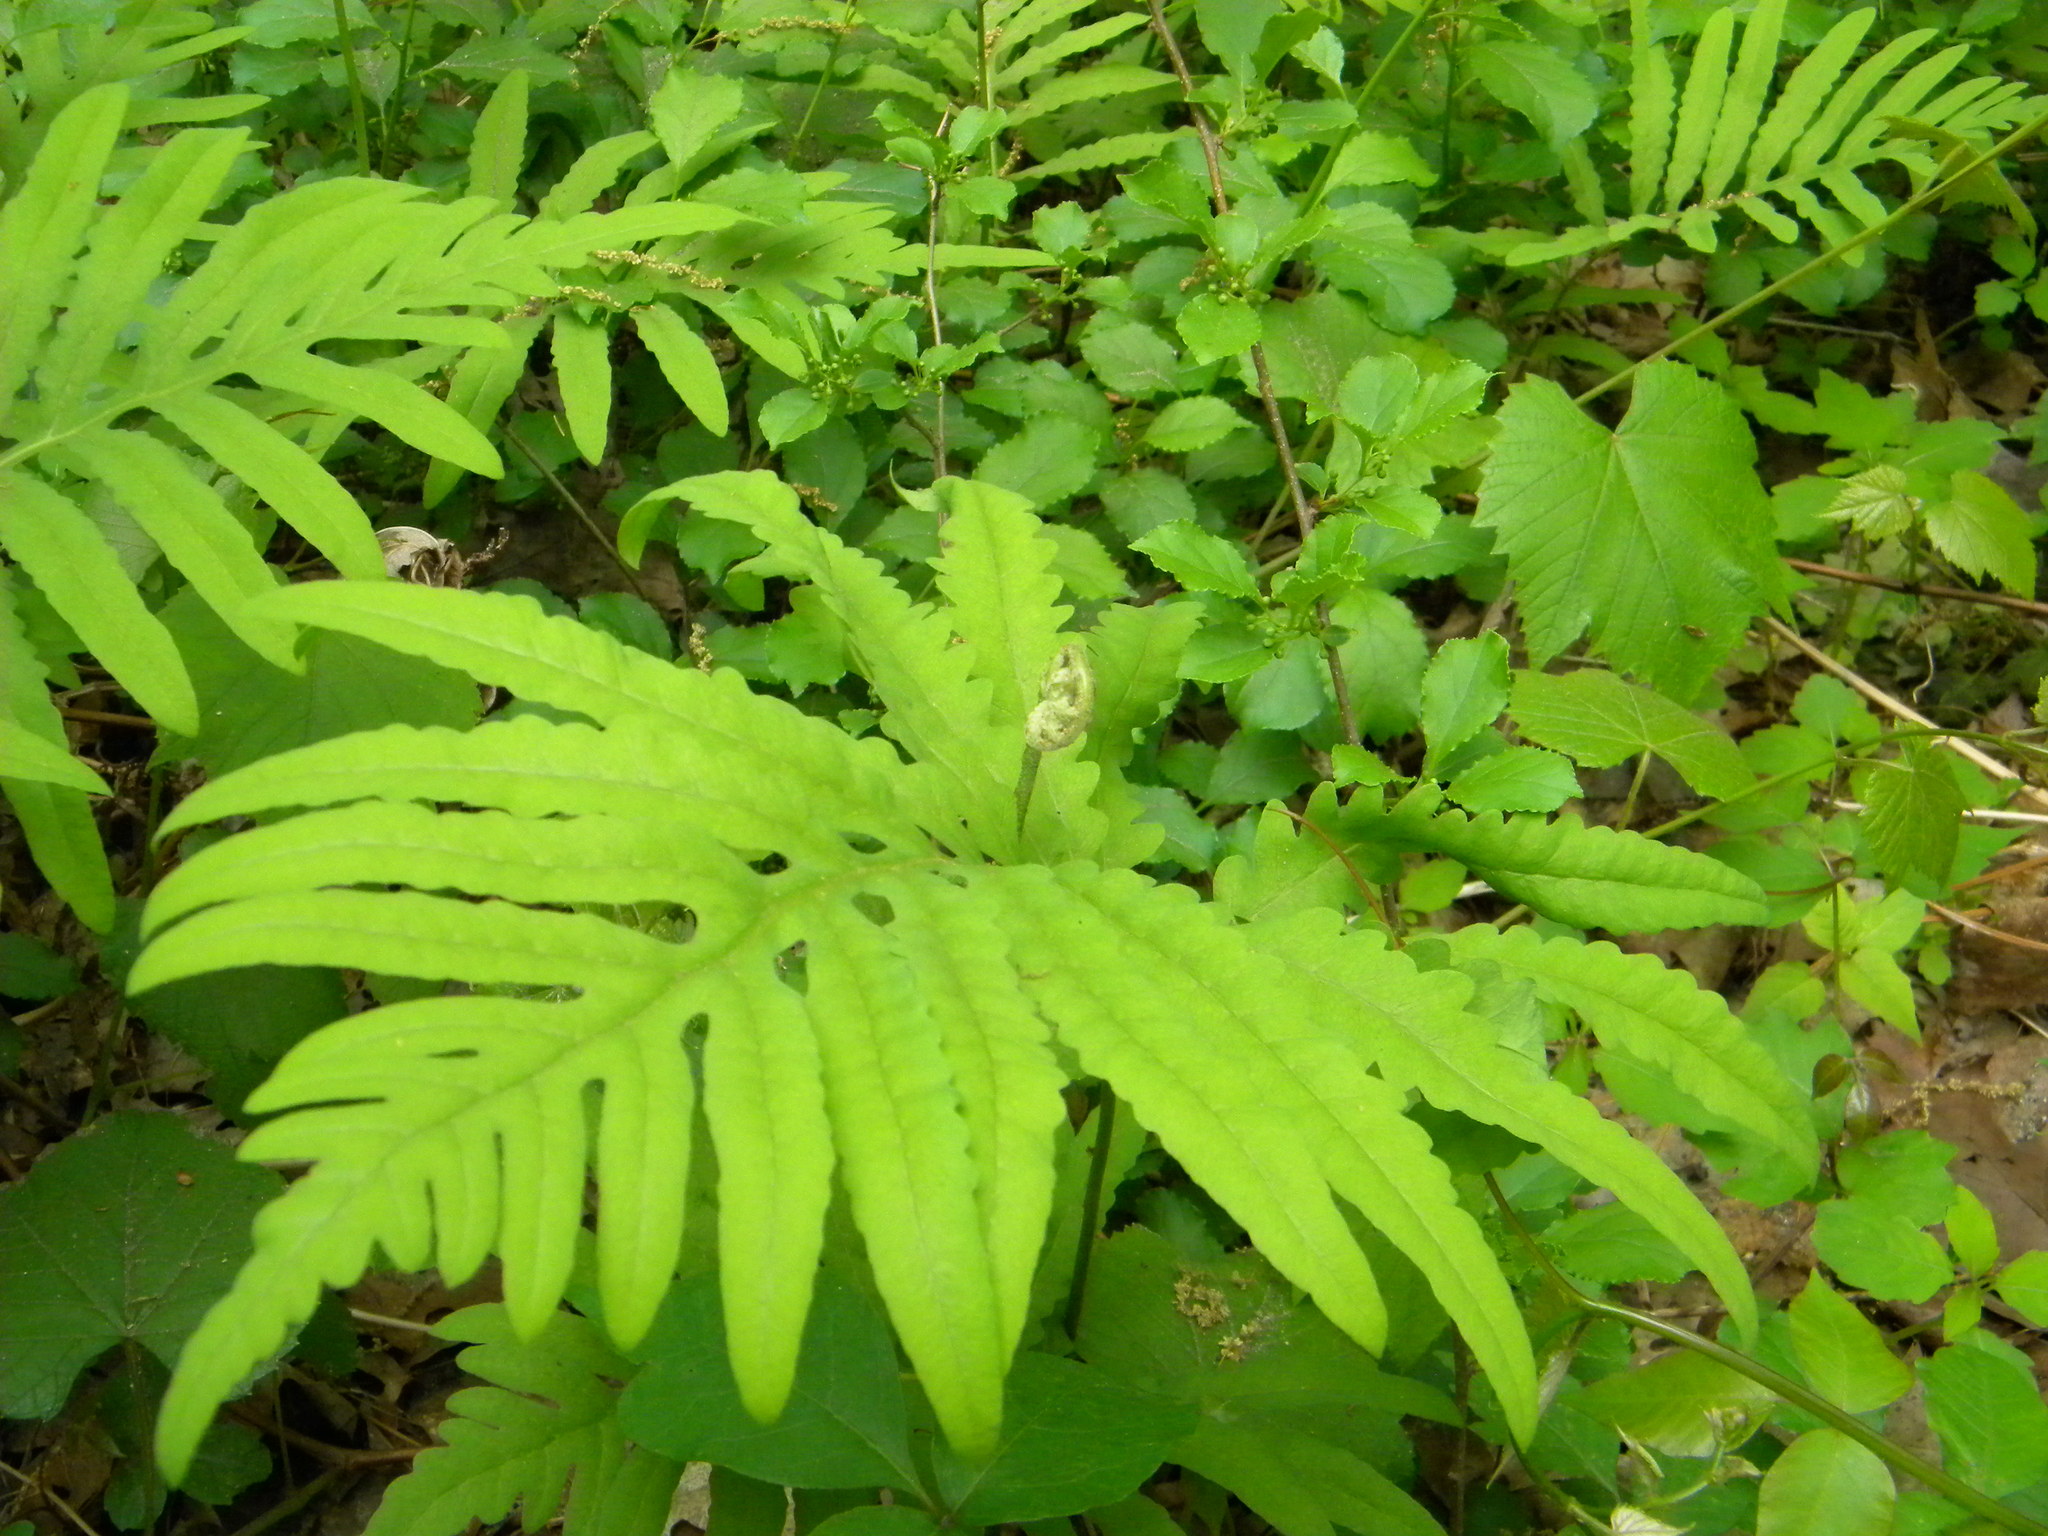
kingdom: Plantae
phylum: Tracheophyta
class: Polypodiopsida
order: Polypodiales
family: Onocleaceae
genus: Onoclea
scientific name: Onoclea sensibilis
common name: Sensitive fern
